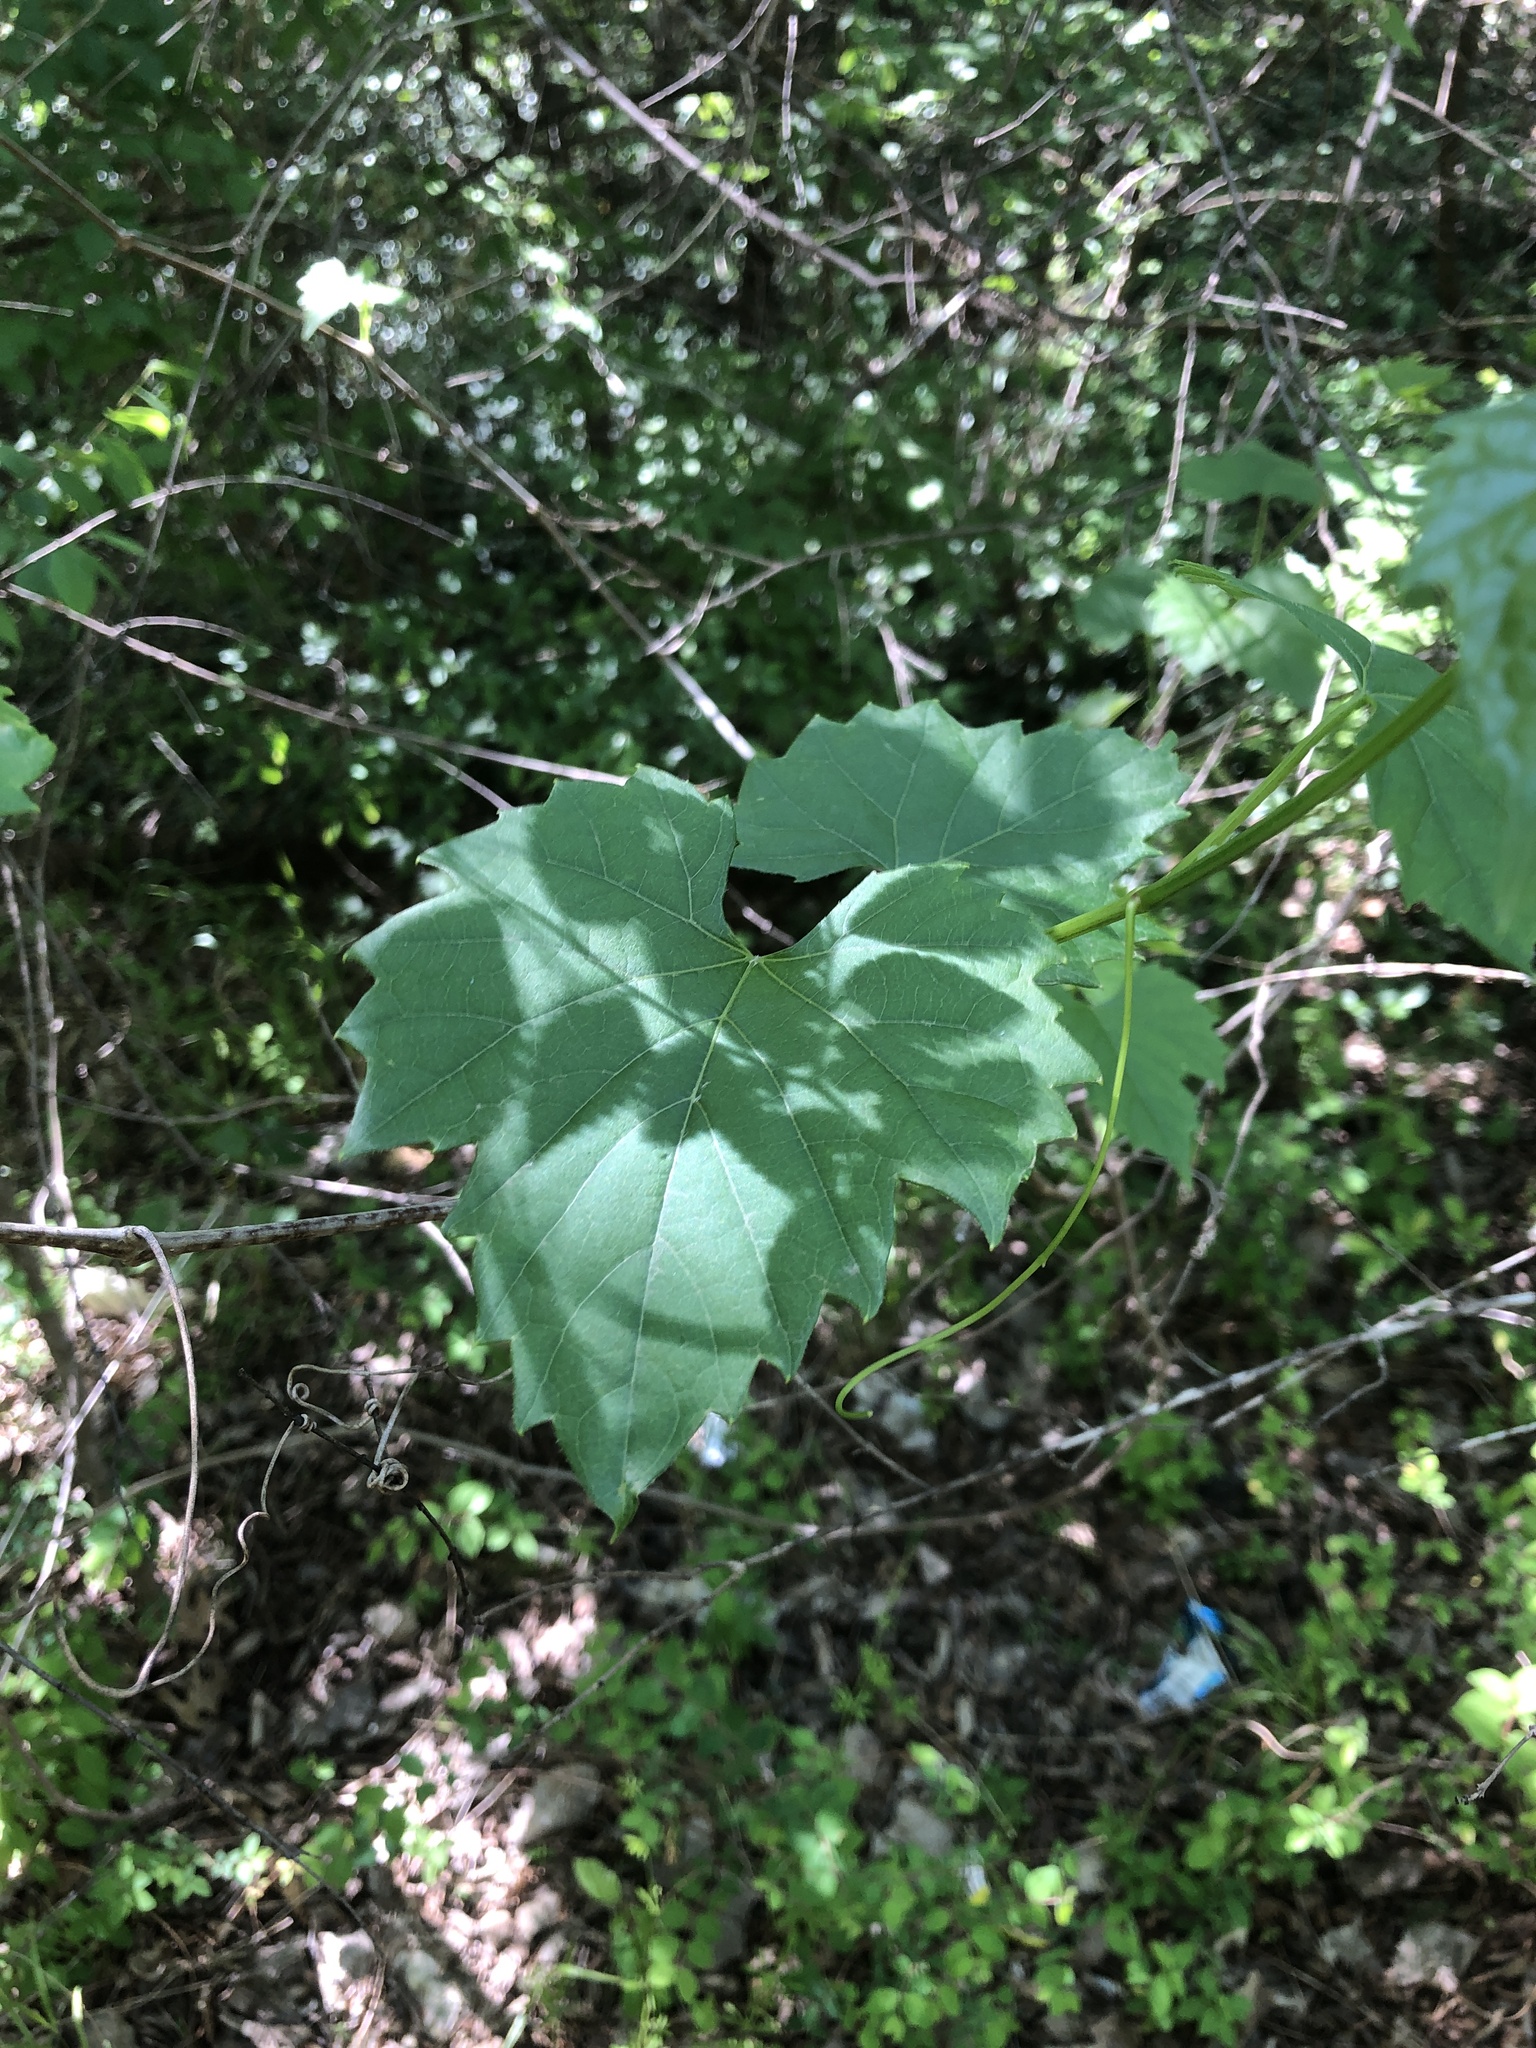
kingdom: Plantae
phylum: Tracheophyta
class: Magnoliopsida
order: Vitales
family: Vitaceae
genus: Vitis
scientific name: Vitis riparia
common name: Frost grape
